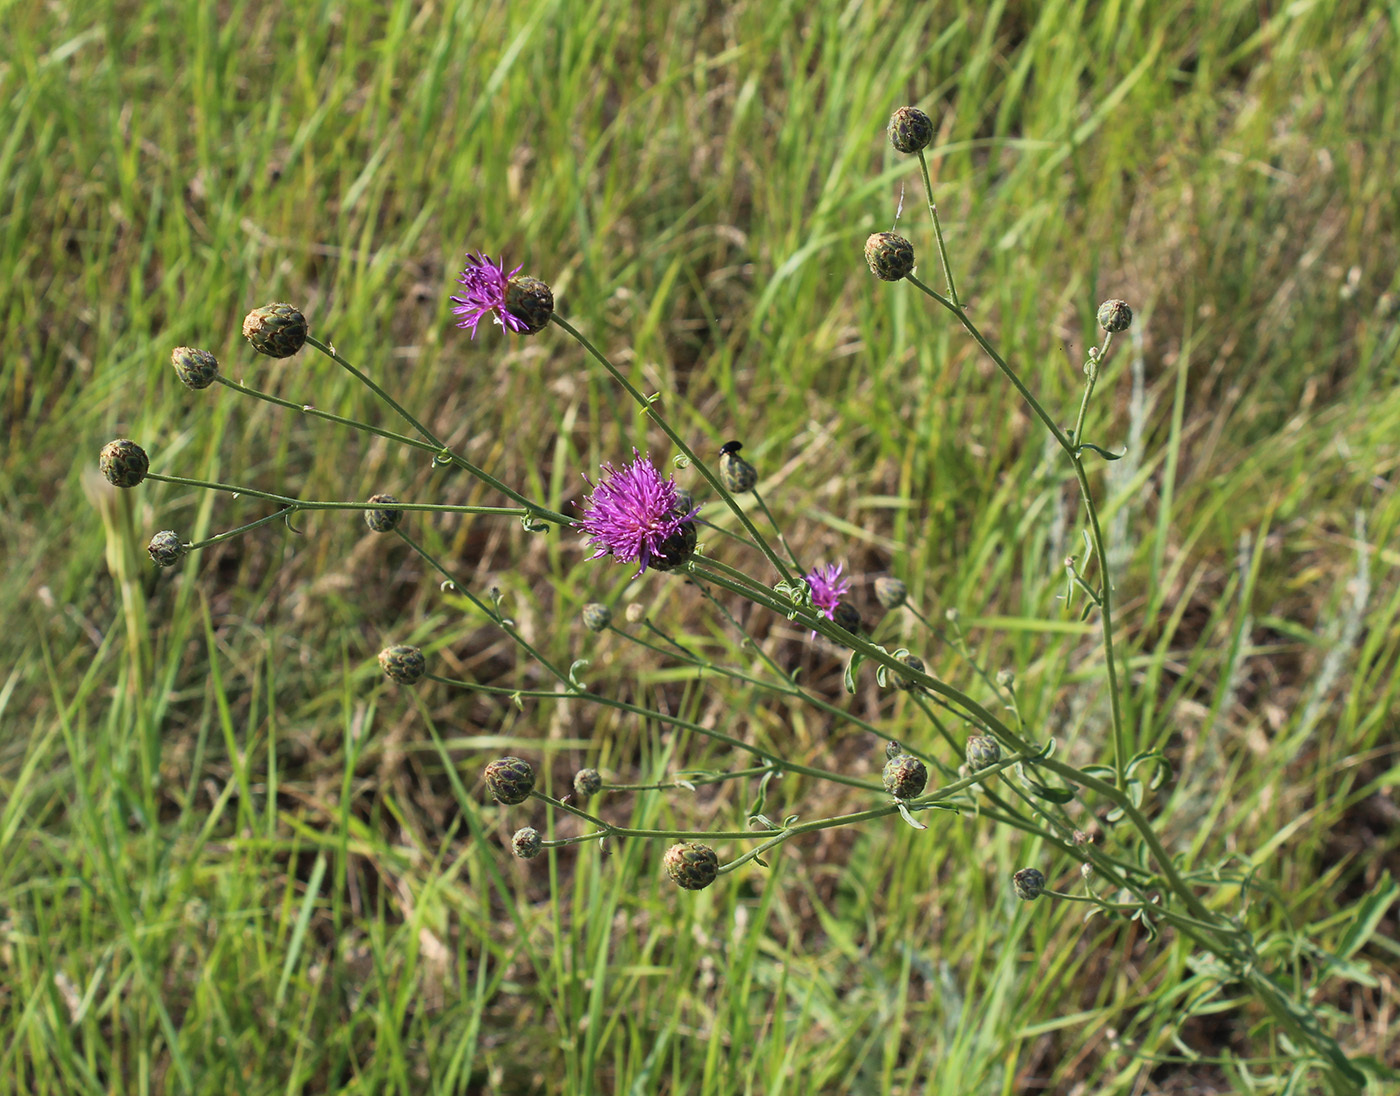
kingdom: Plantae
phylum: Tracheophyta
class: Magnoliopsida
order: Asterales
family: Asteraceae
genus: Centaurea
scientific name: Centaurea adpressa
